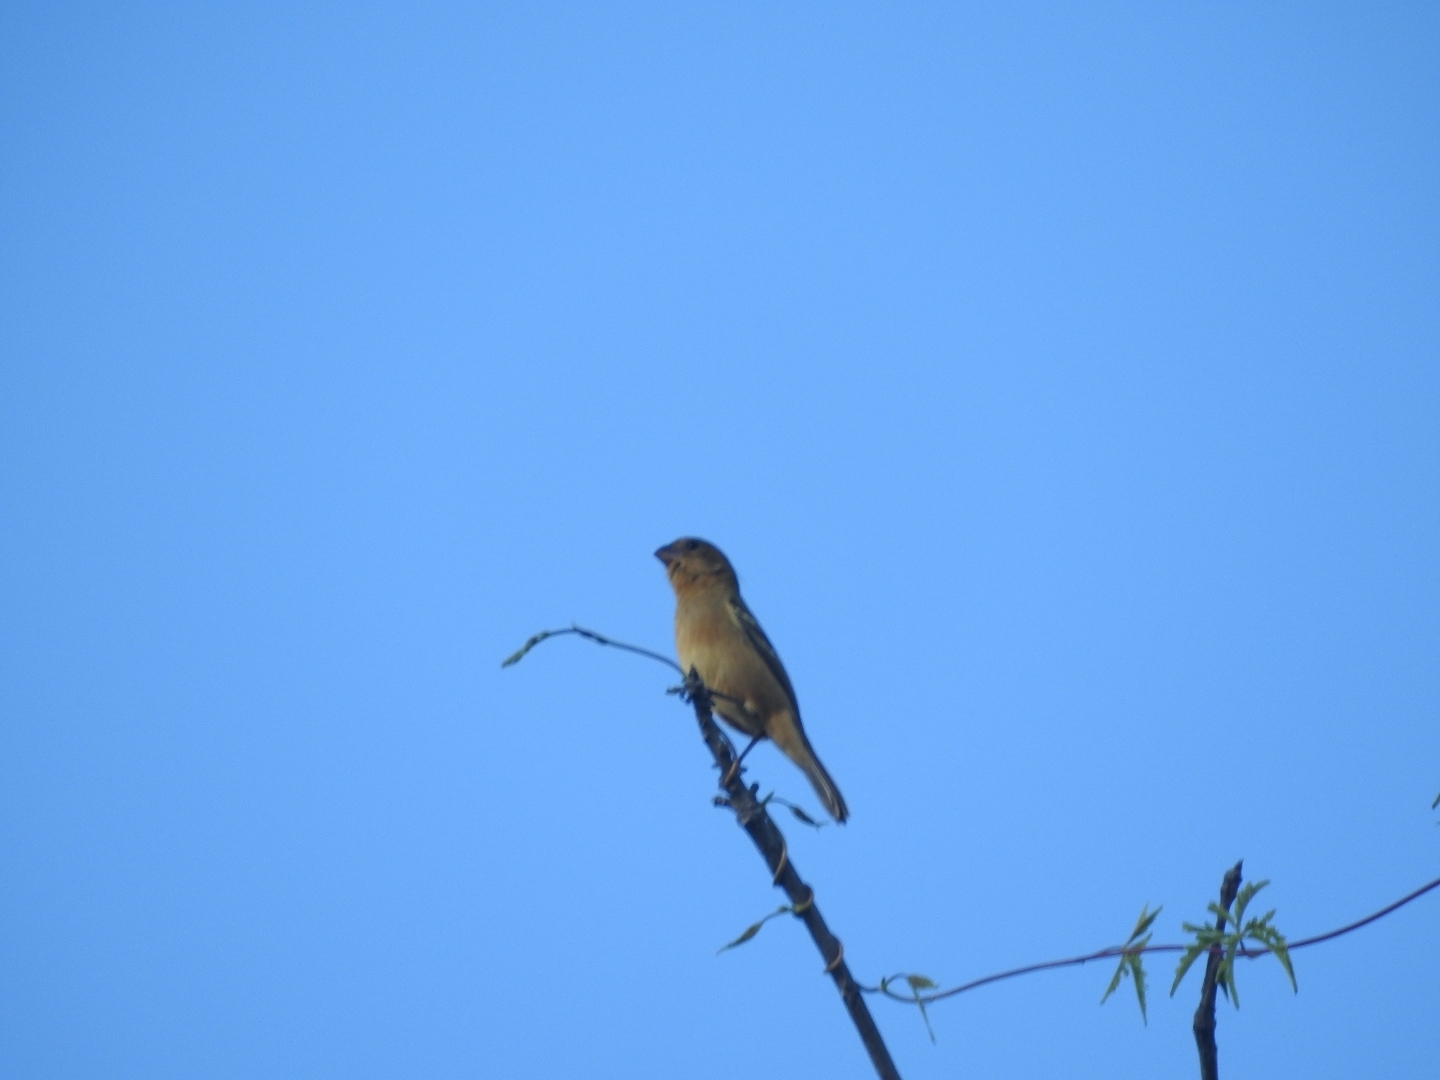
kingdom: Animalia
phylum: Chordata
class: Aves
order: Passeriformes
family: Thraupidae
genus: Sporophila
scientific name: Sporophila morelleti
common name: Morelet's seedeater
